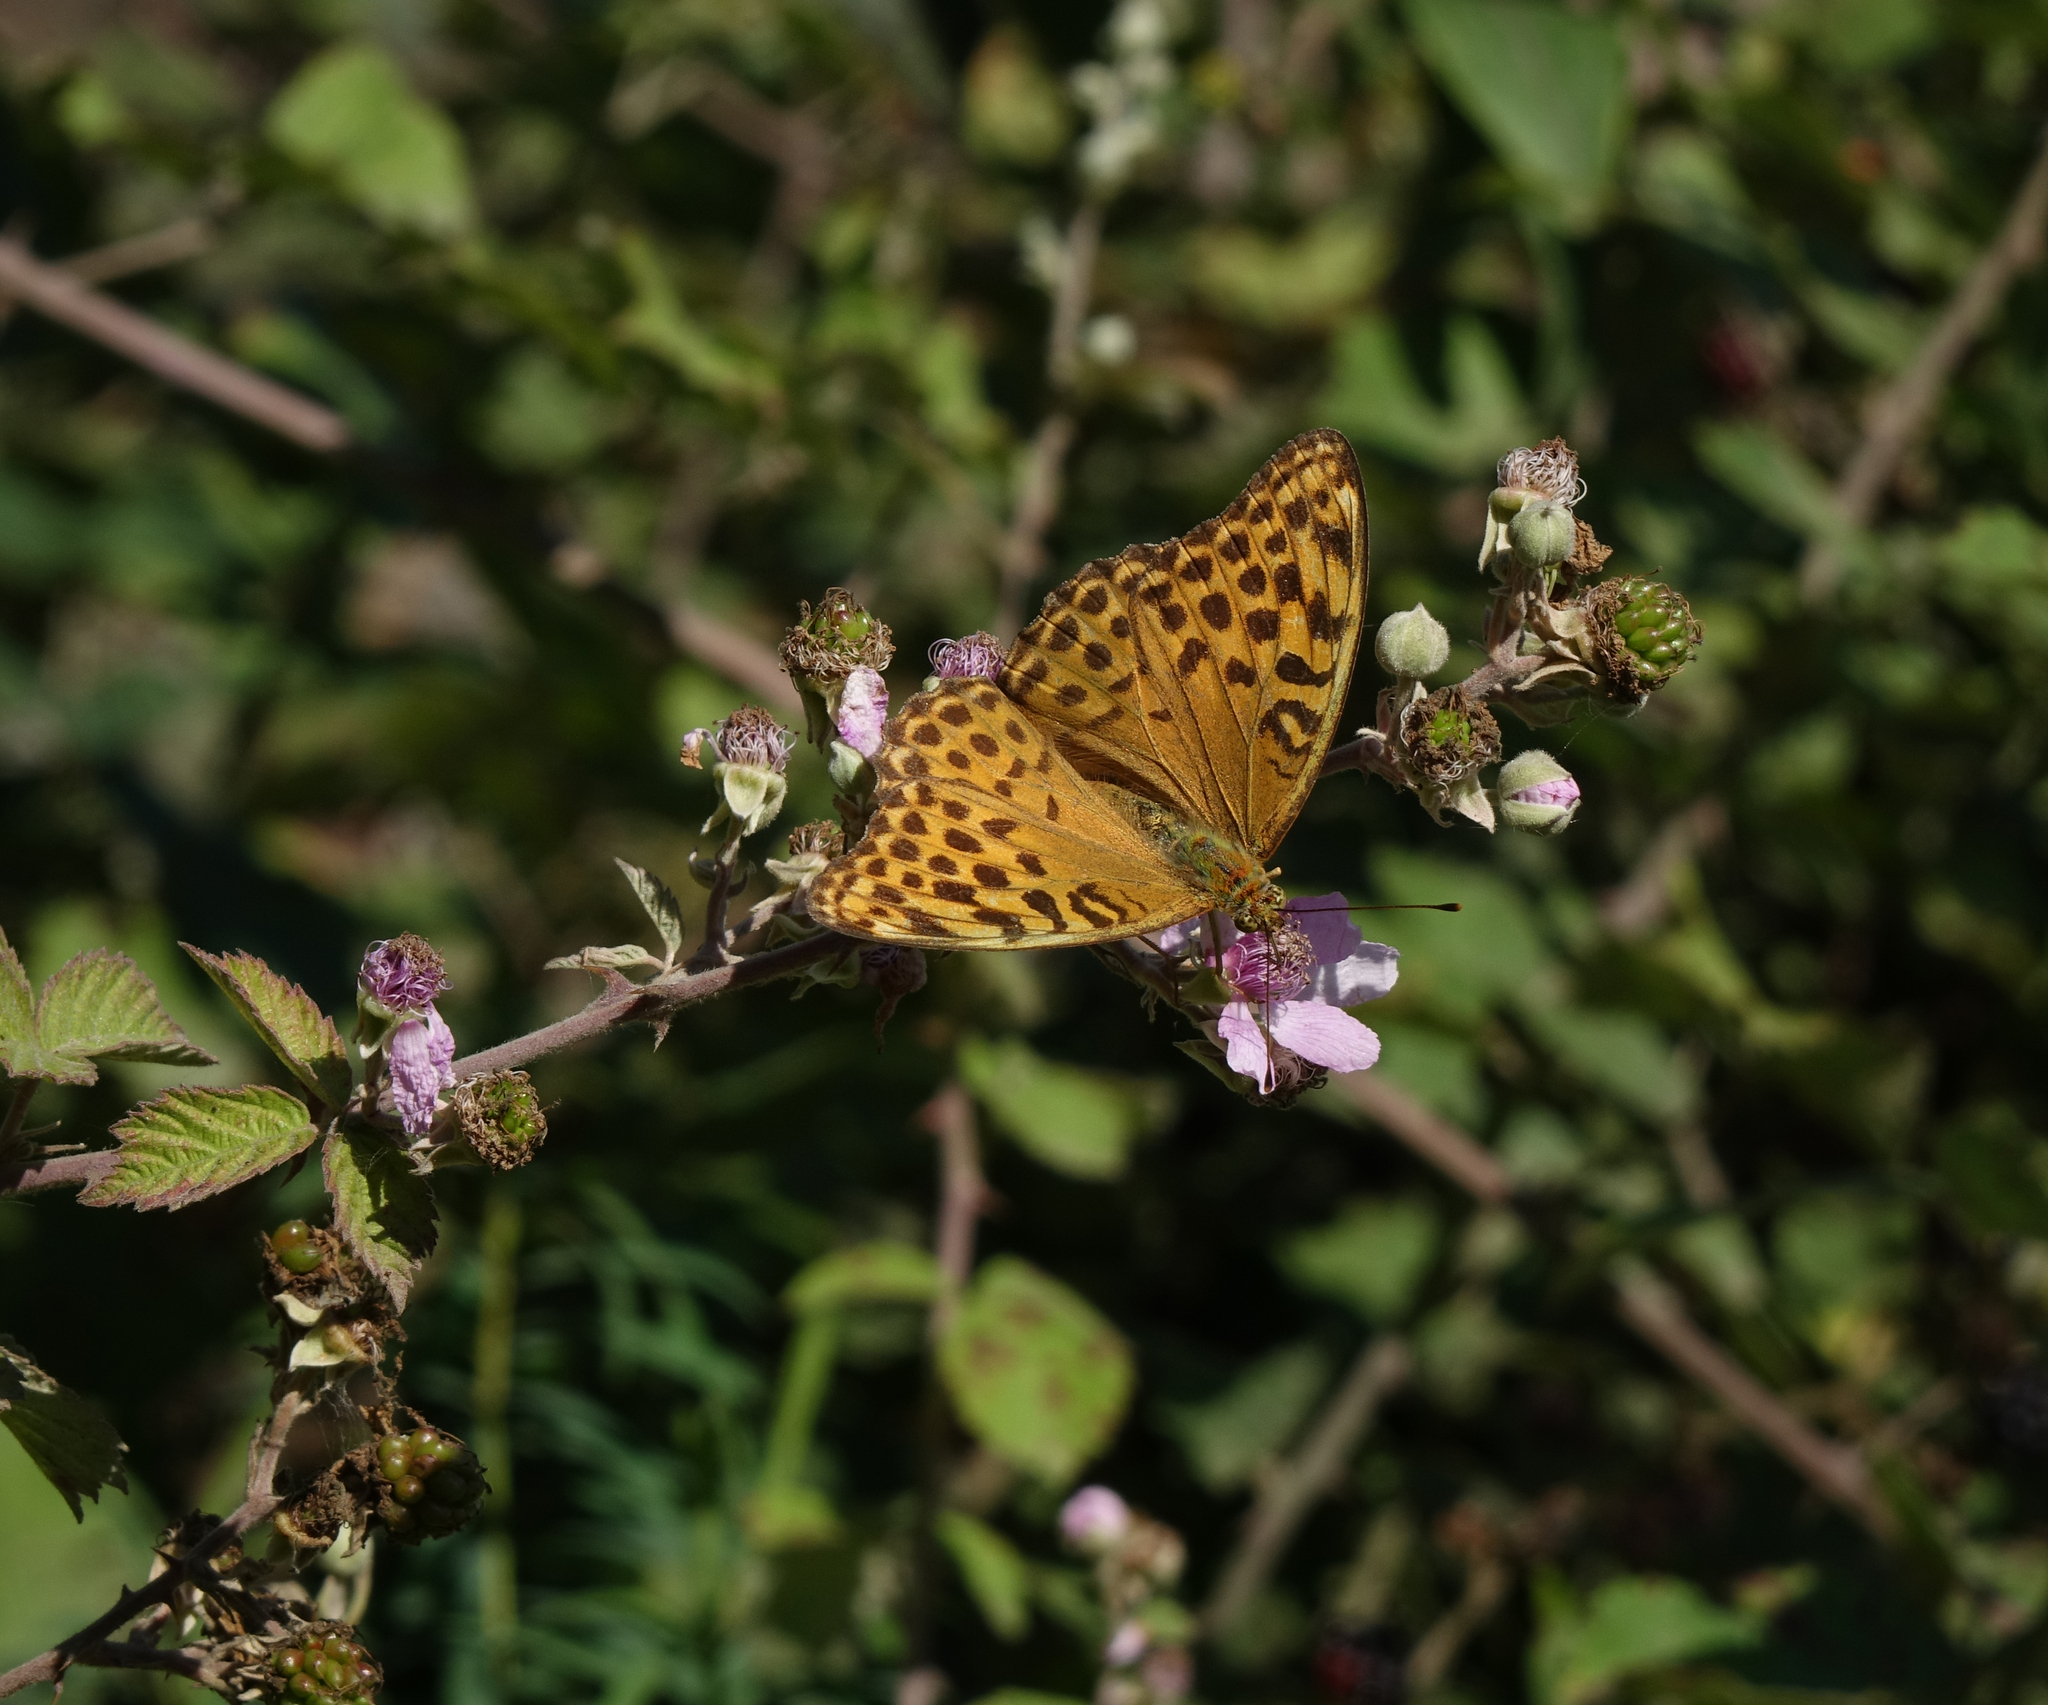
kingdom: Animalia
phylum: Arthropoda
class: Insecta
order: Lepidoptera
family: Nymphalidae
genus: Argynnis
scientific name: Argynnis paphia
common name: Silver-washed fritillary
